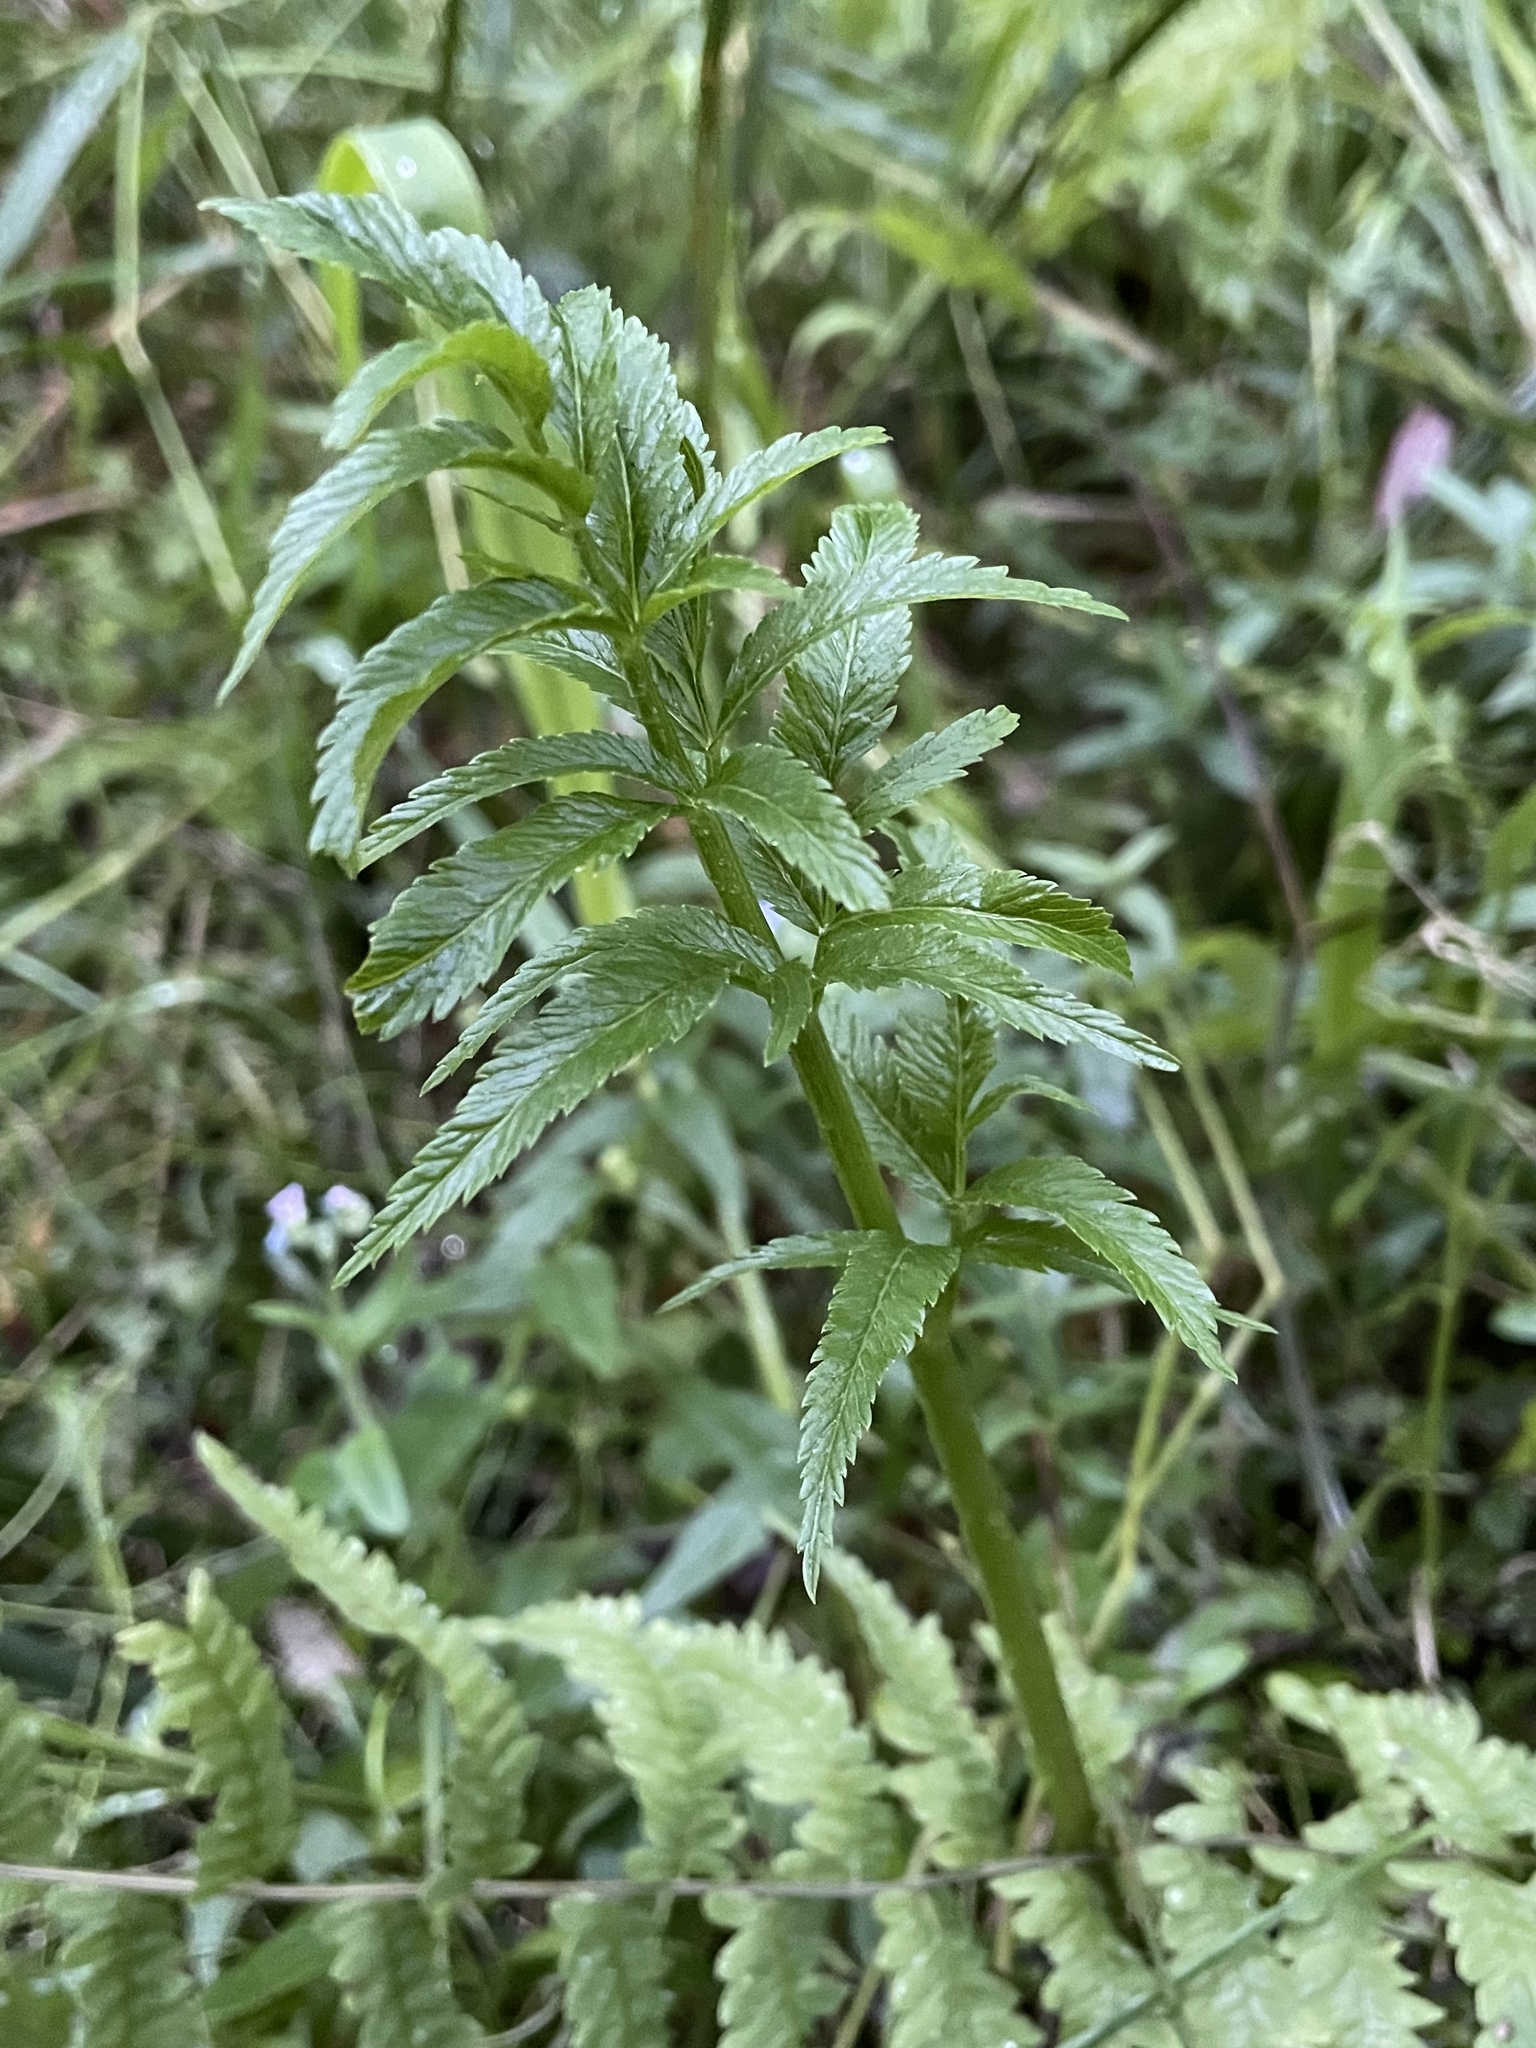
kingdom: Plantae
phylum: Tracheophyta
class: Magnoliopsida
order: Apiales
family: Apiaceae
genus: Cicuta
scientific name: Cicuta virosa
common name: Cowbane
